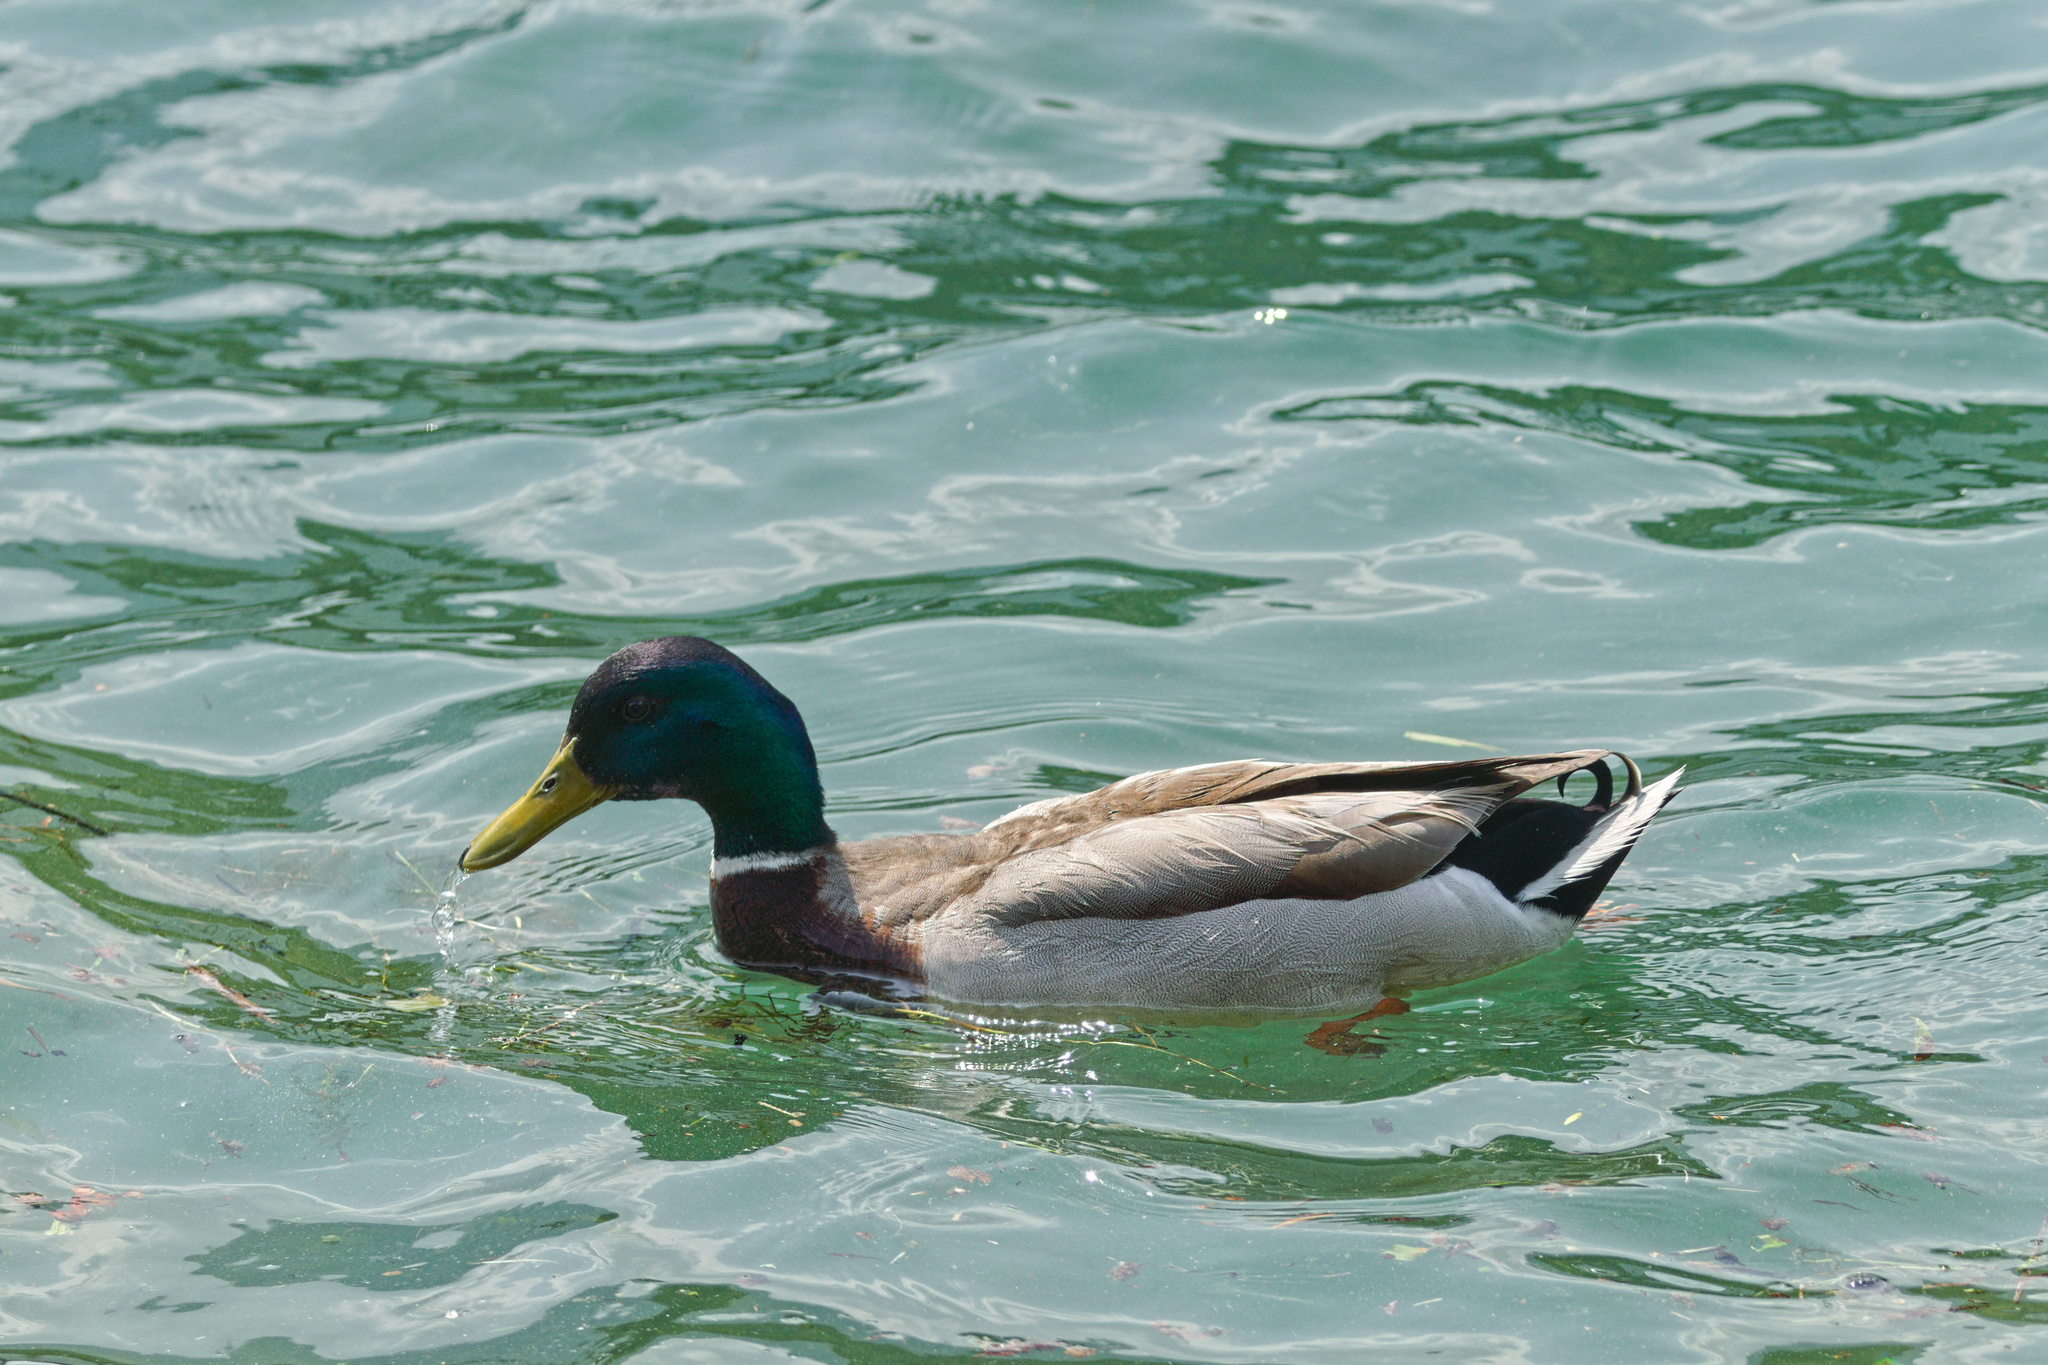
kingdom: Animalia
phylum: Chordata
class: Aves
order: Anseriformes
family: Anatidae
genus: Anas
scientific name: Anas platyrhynchos
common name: Mallard
